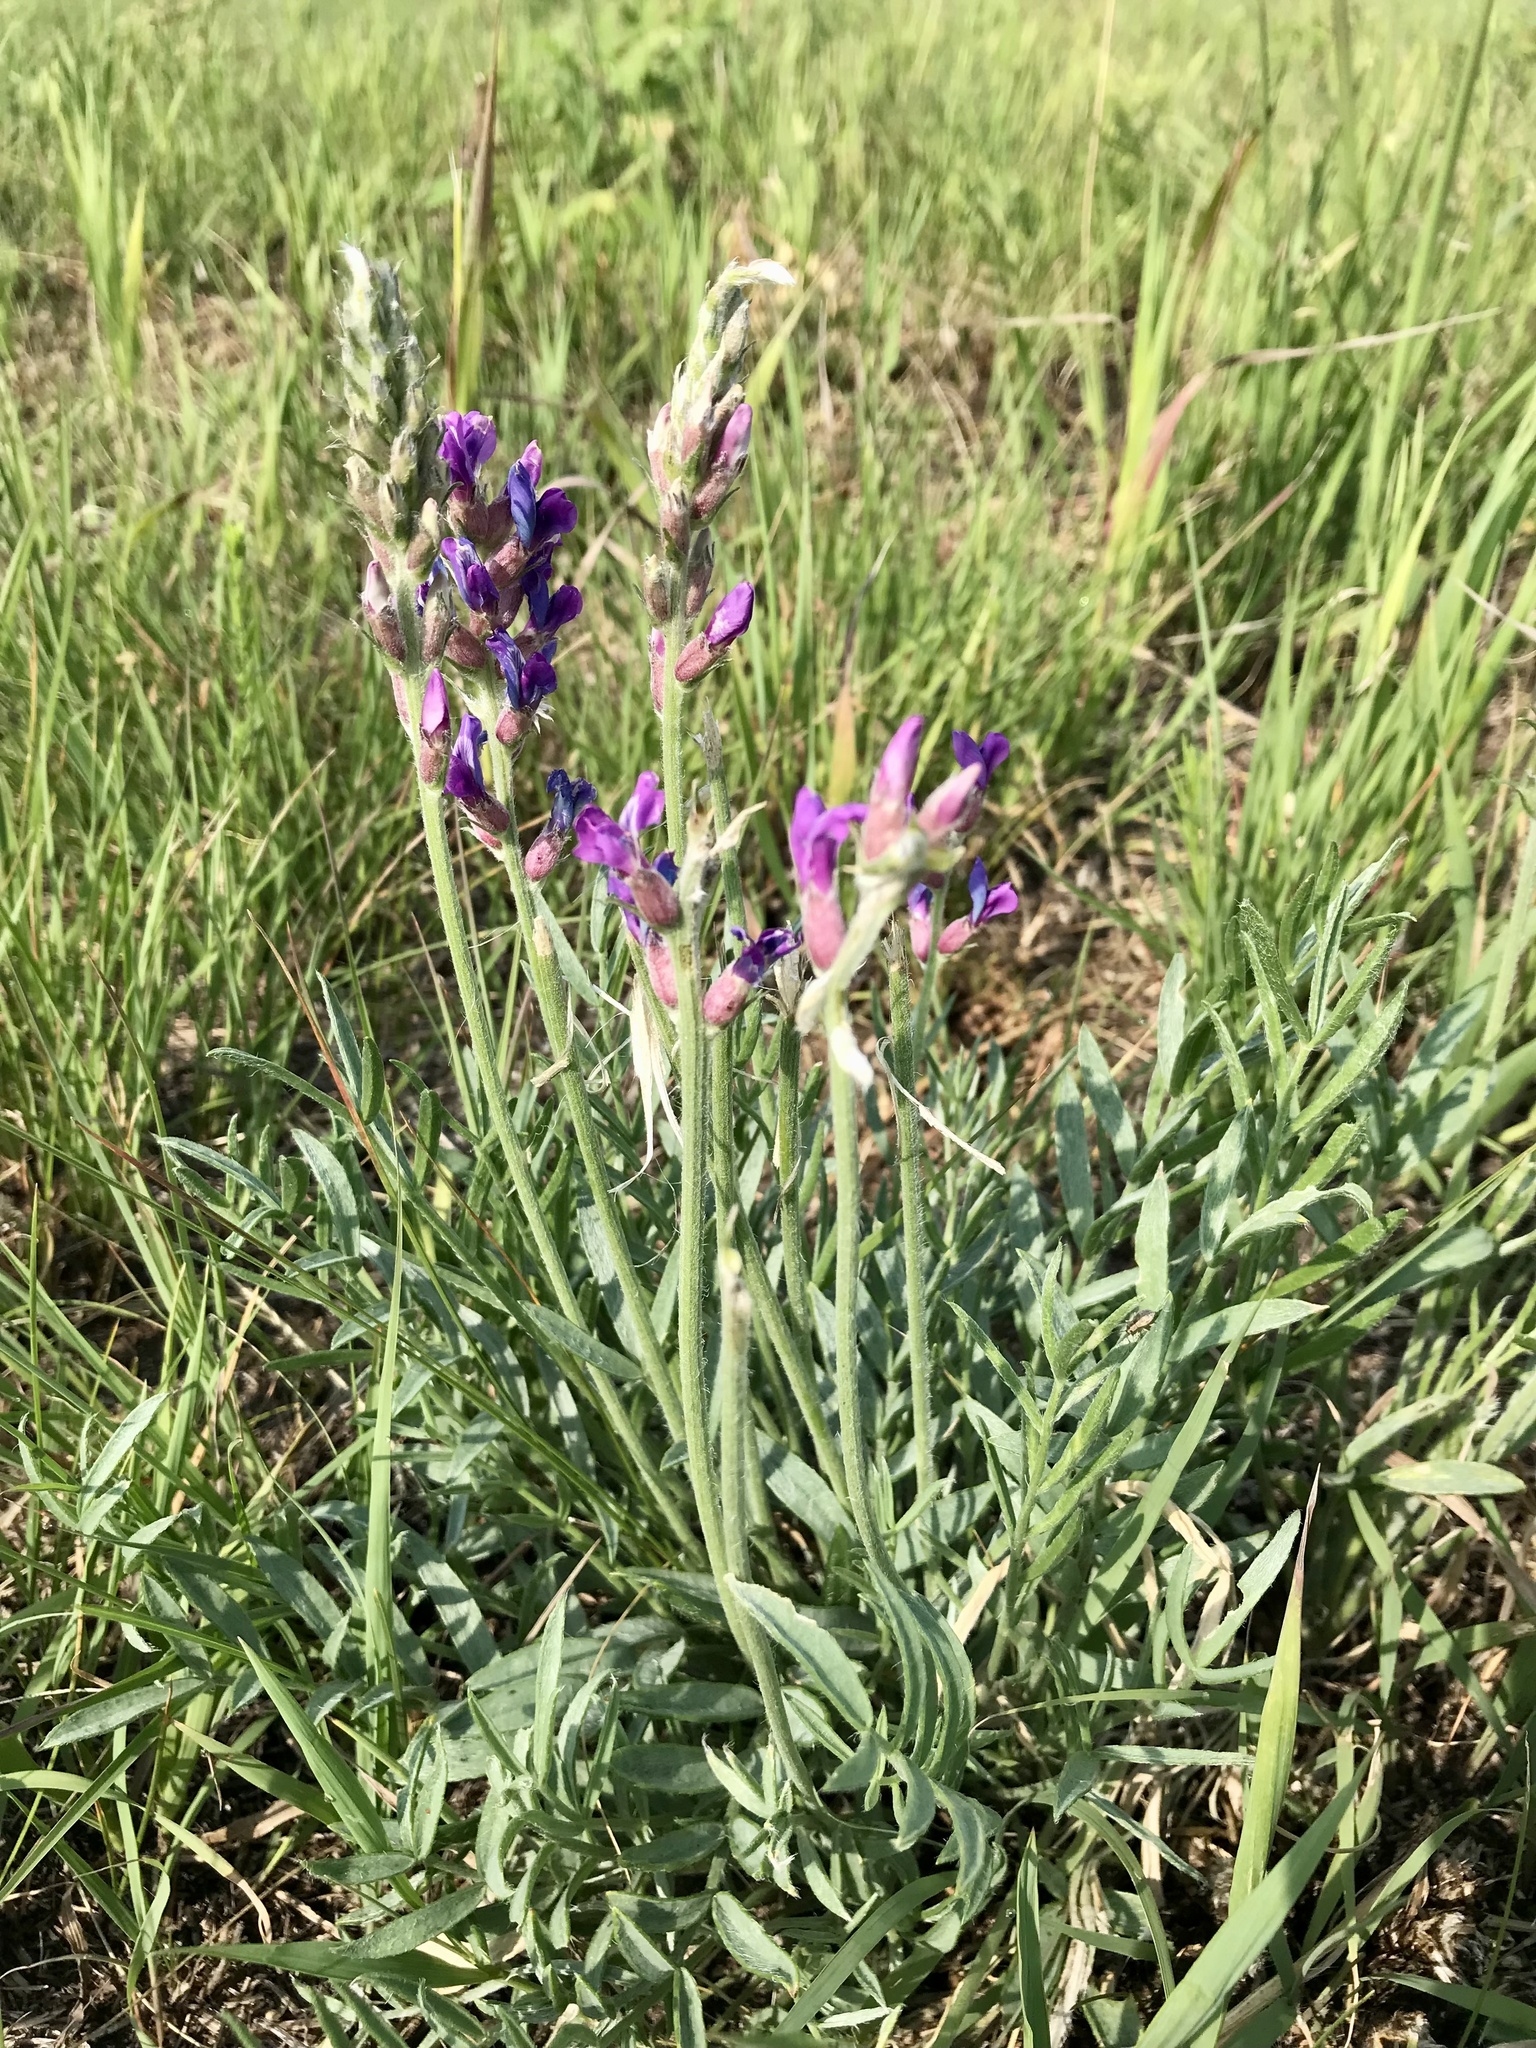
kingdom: Plantae
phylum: Tracheophyta
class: Magnoliopsida
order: Fabales
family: Fabaceae
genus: Oxytropis
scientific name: Oxytropis lambertii
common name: Purple locoweed
